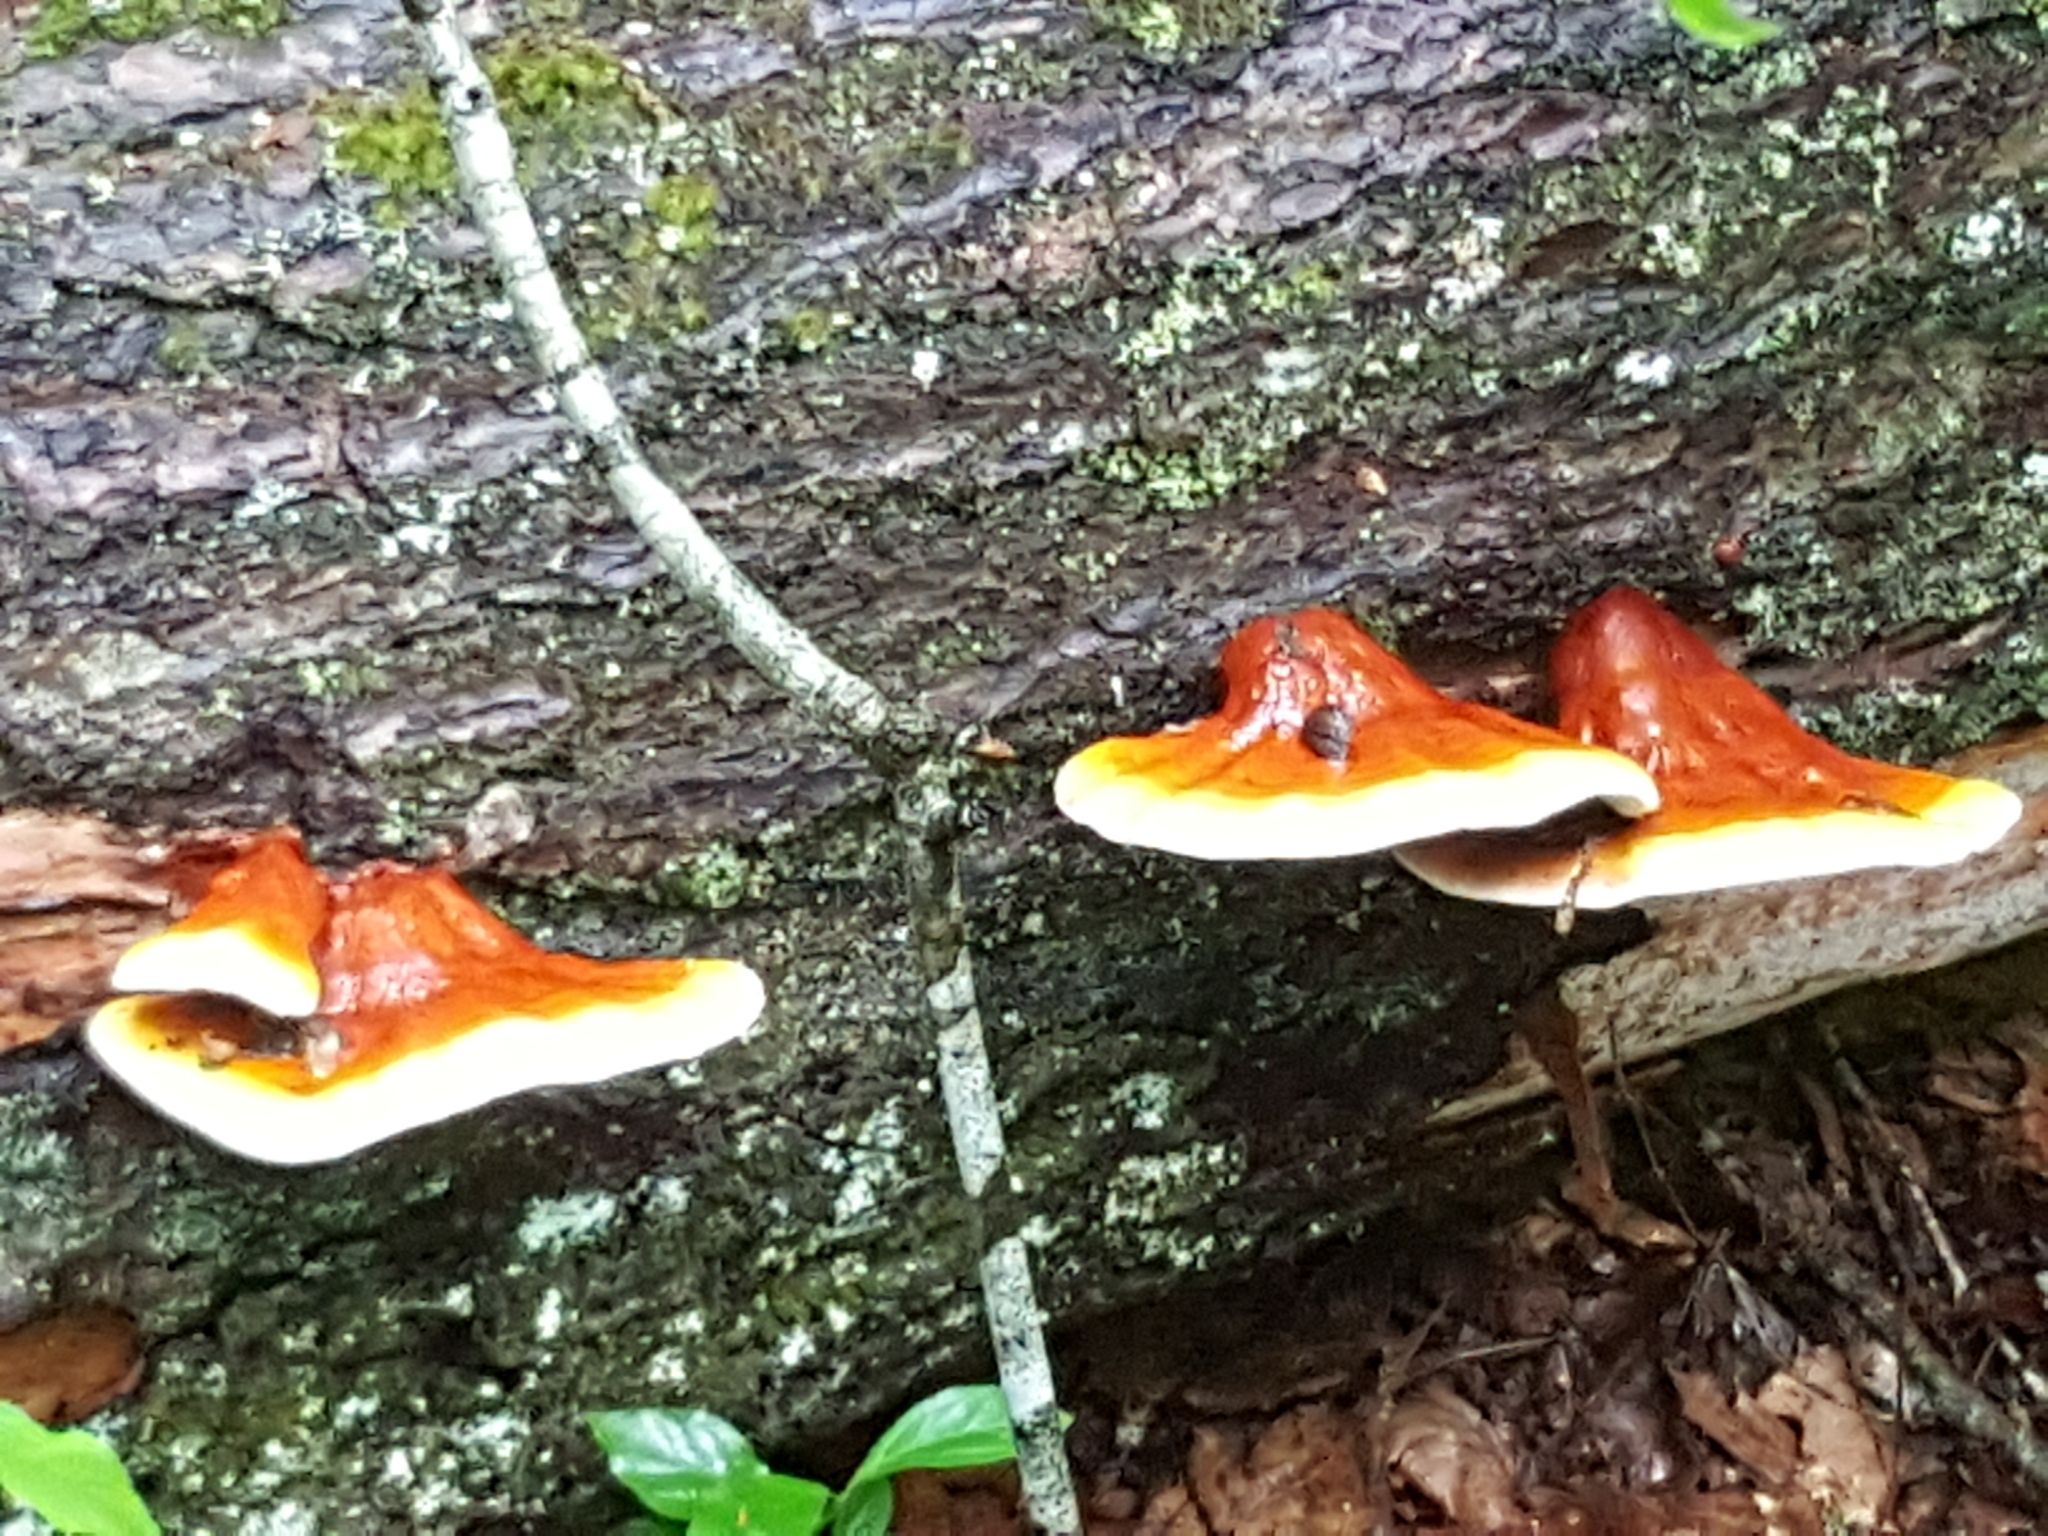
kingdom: Fungi
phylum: Basidiomycota
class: Agaricomycetes
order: Polyporales
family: Polyporaceae
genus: Ganoderma
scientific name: Ganoderma tsugae
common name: Hemlock varnish shelf
